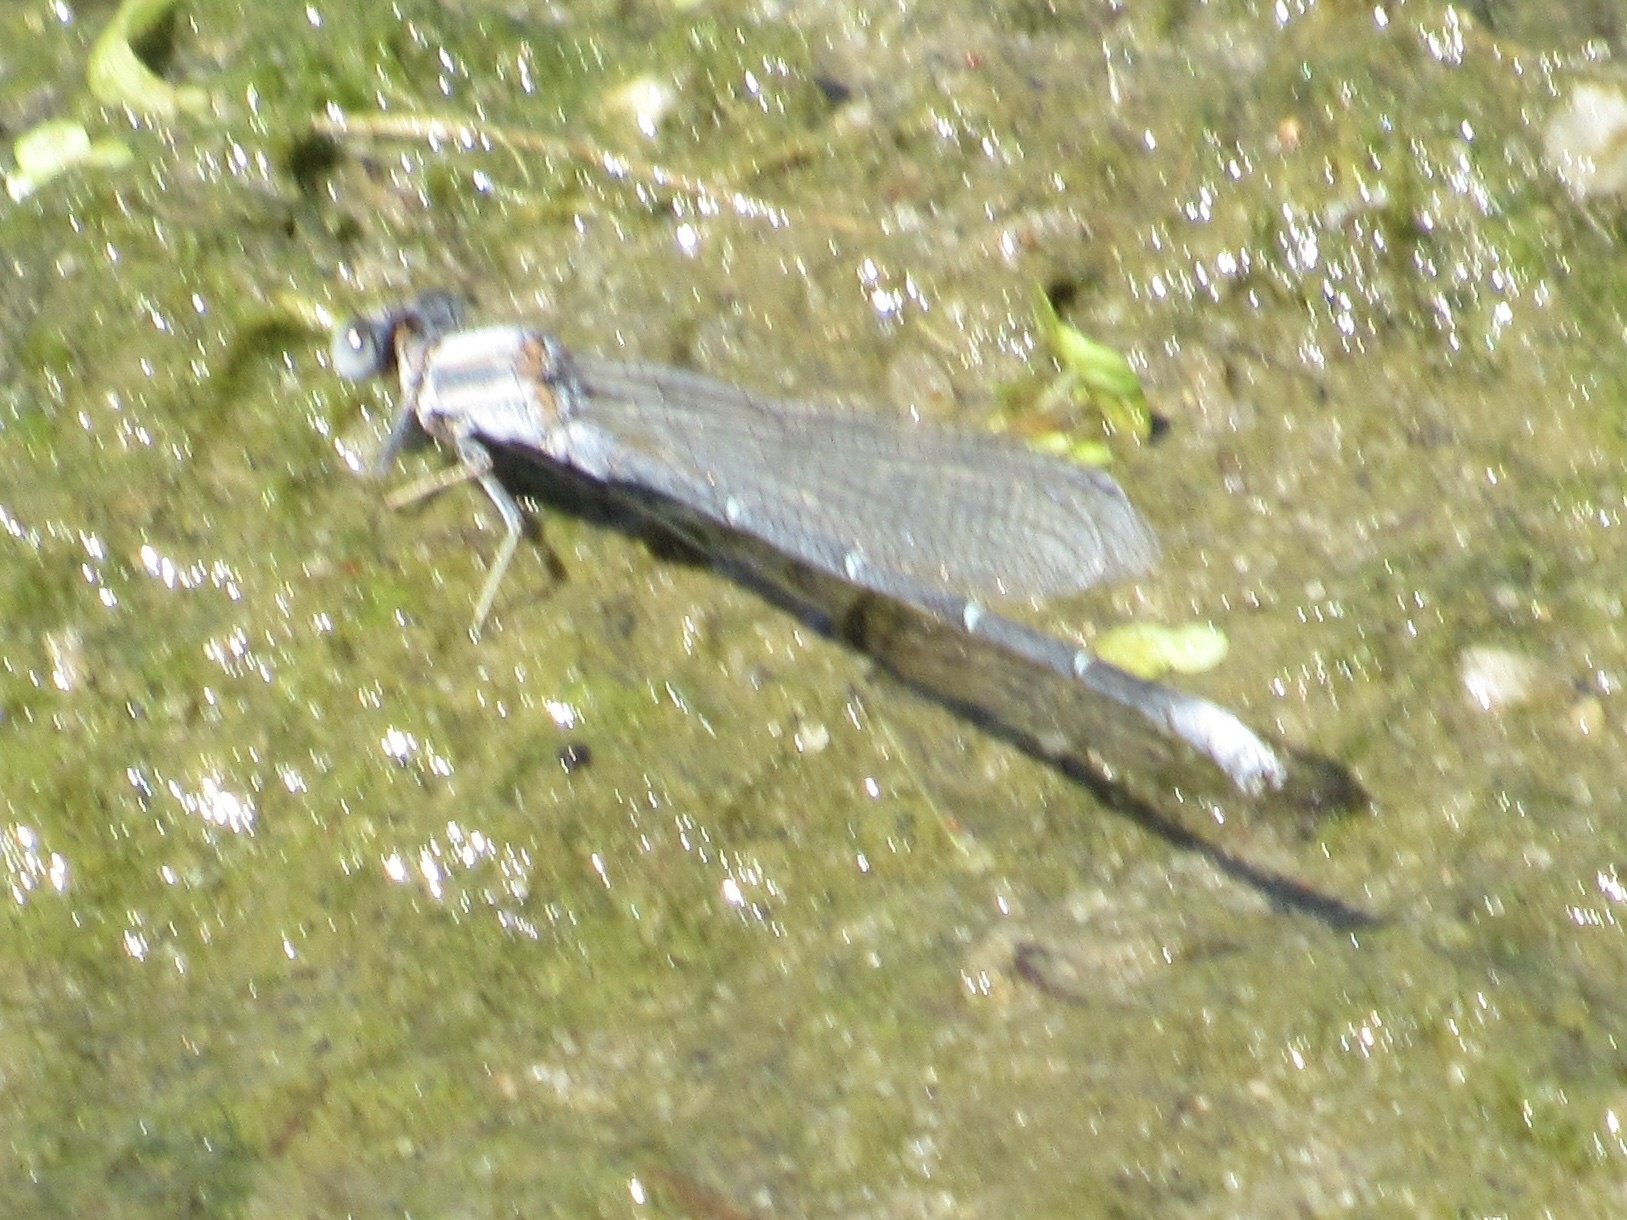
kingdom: Animalia
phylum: Arthropoda
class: Insecta
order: Odonata
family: Coenagrionidae
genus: Argia
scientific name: Argia moesta
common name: Powdered dancer
